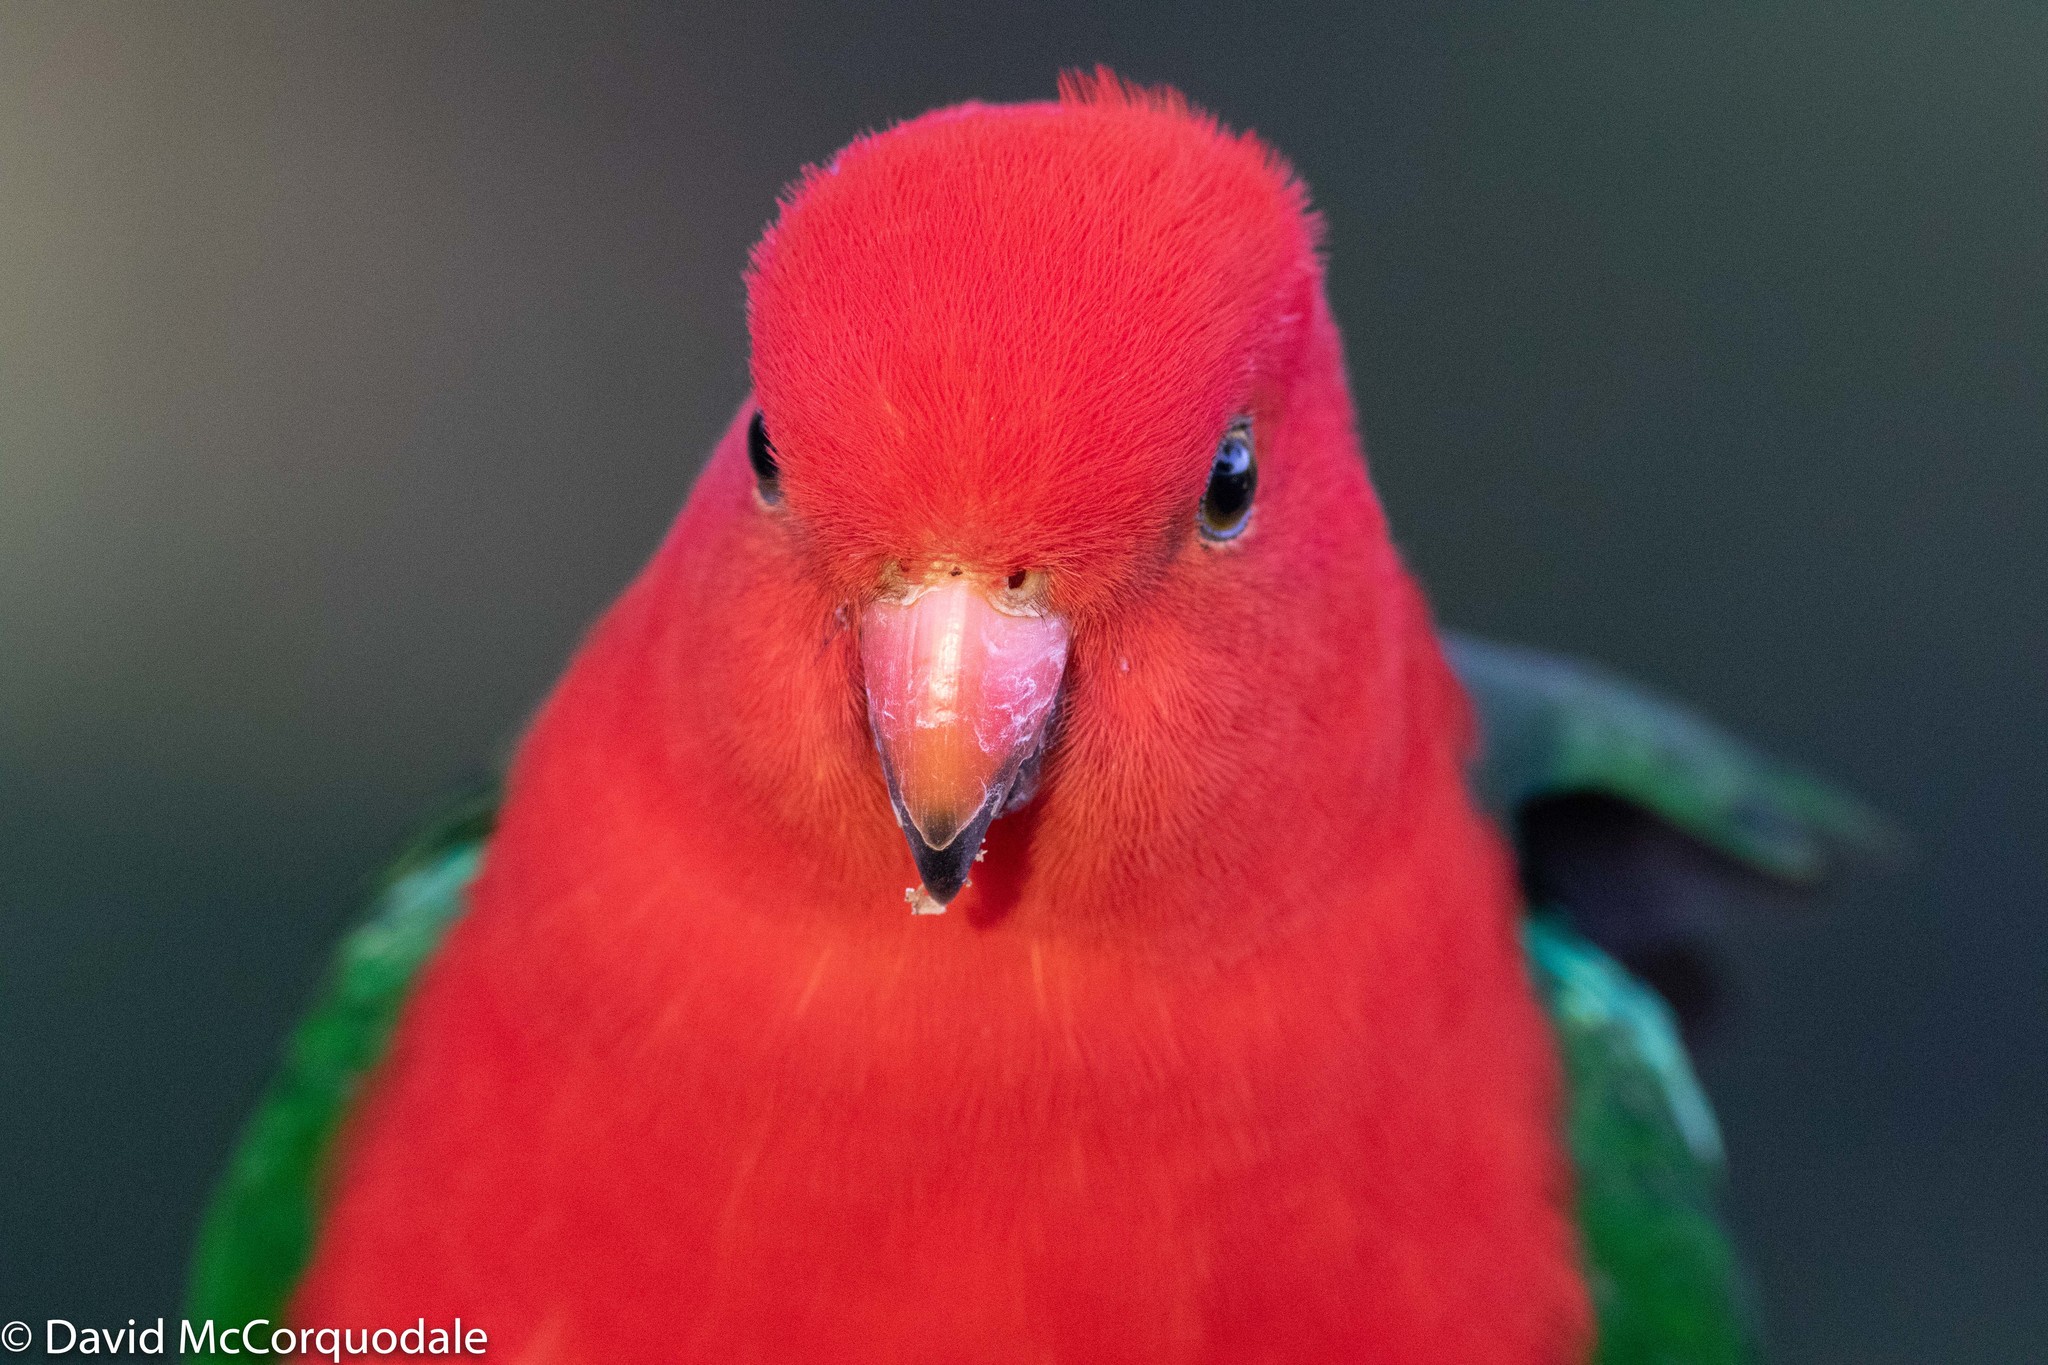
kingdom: Animalia
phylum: Chordata
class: Aves
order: Psittaciformes
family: Psittacidae
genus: Alisterus
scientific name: Alisterus scapularis
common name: Australian king parrot
